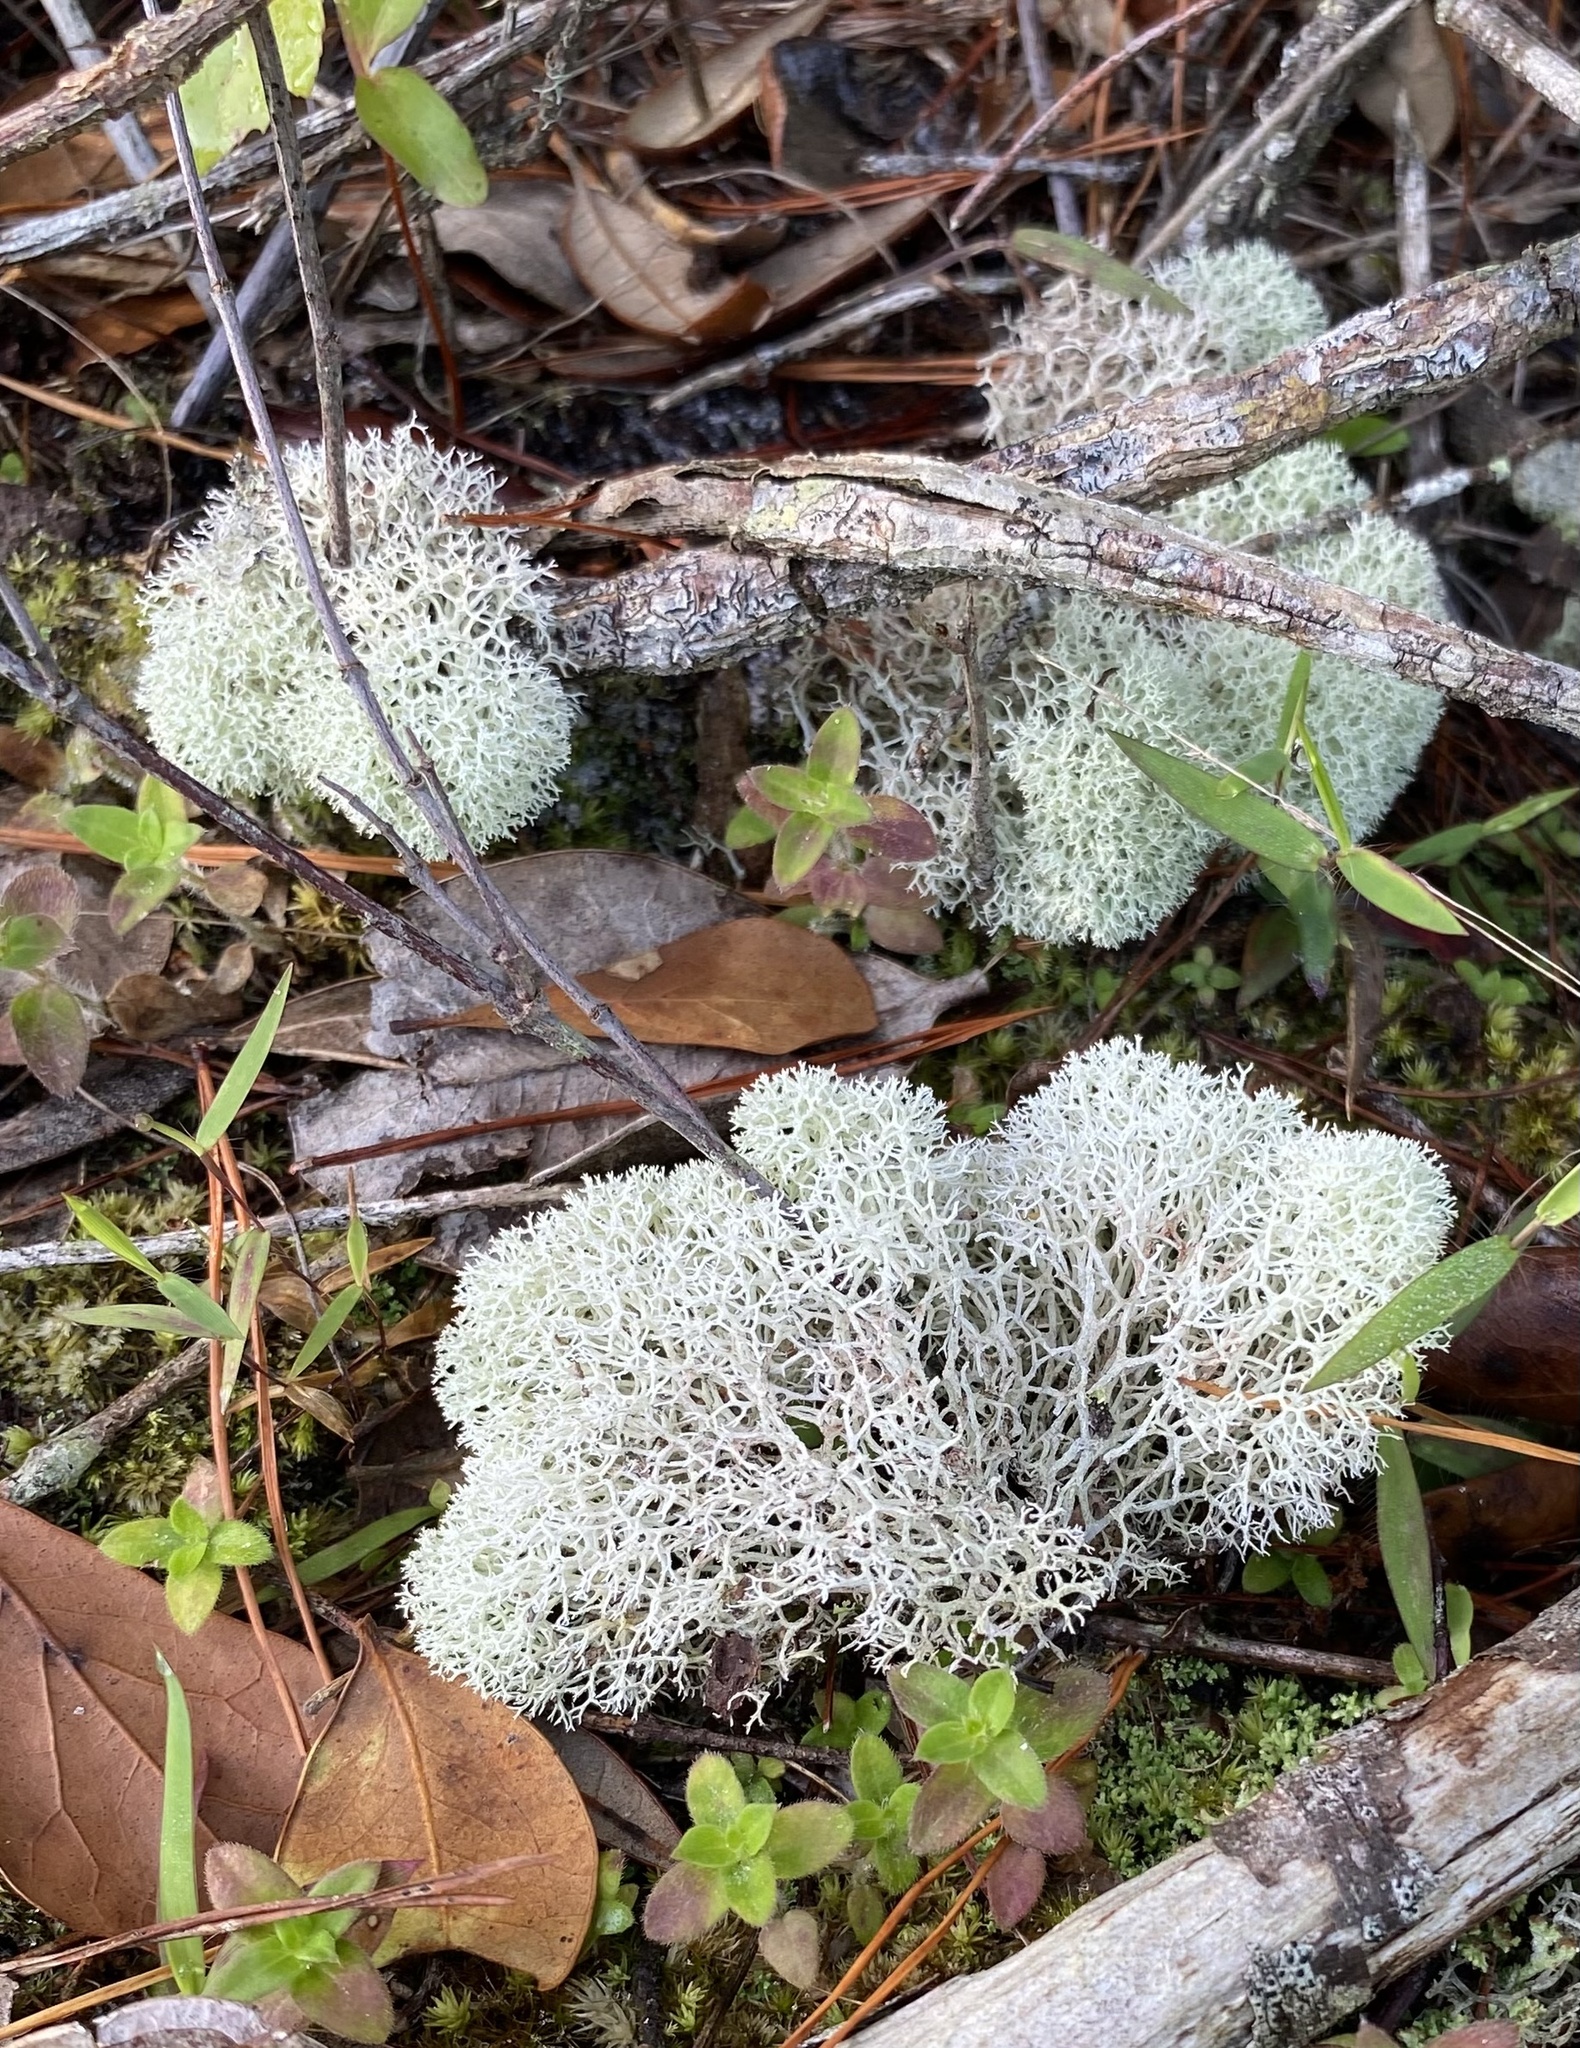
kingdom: Fungi
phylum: Ascomycota
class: Lecanoromycetes
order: Lecanorales
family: Cladoniaceae
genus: Cladonia
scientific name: Cladonia evansii
